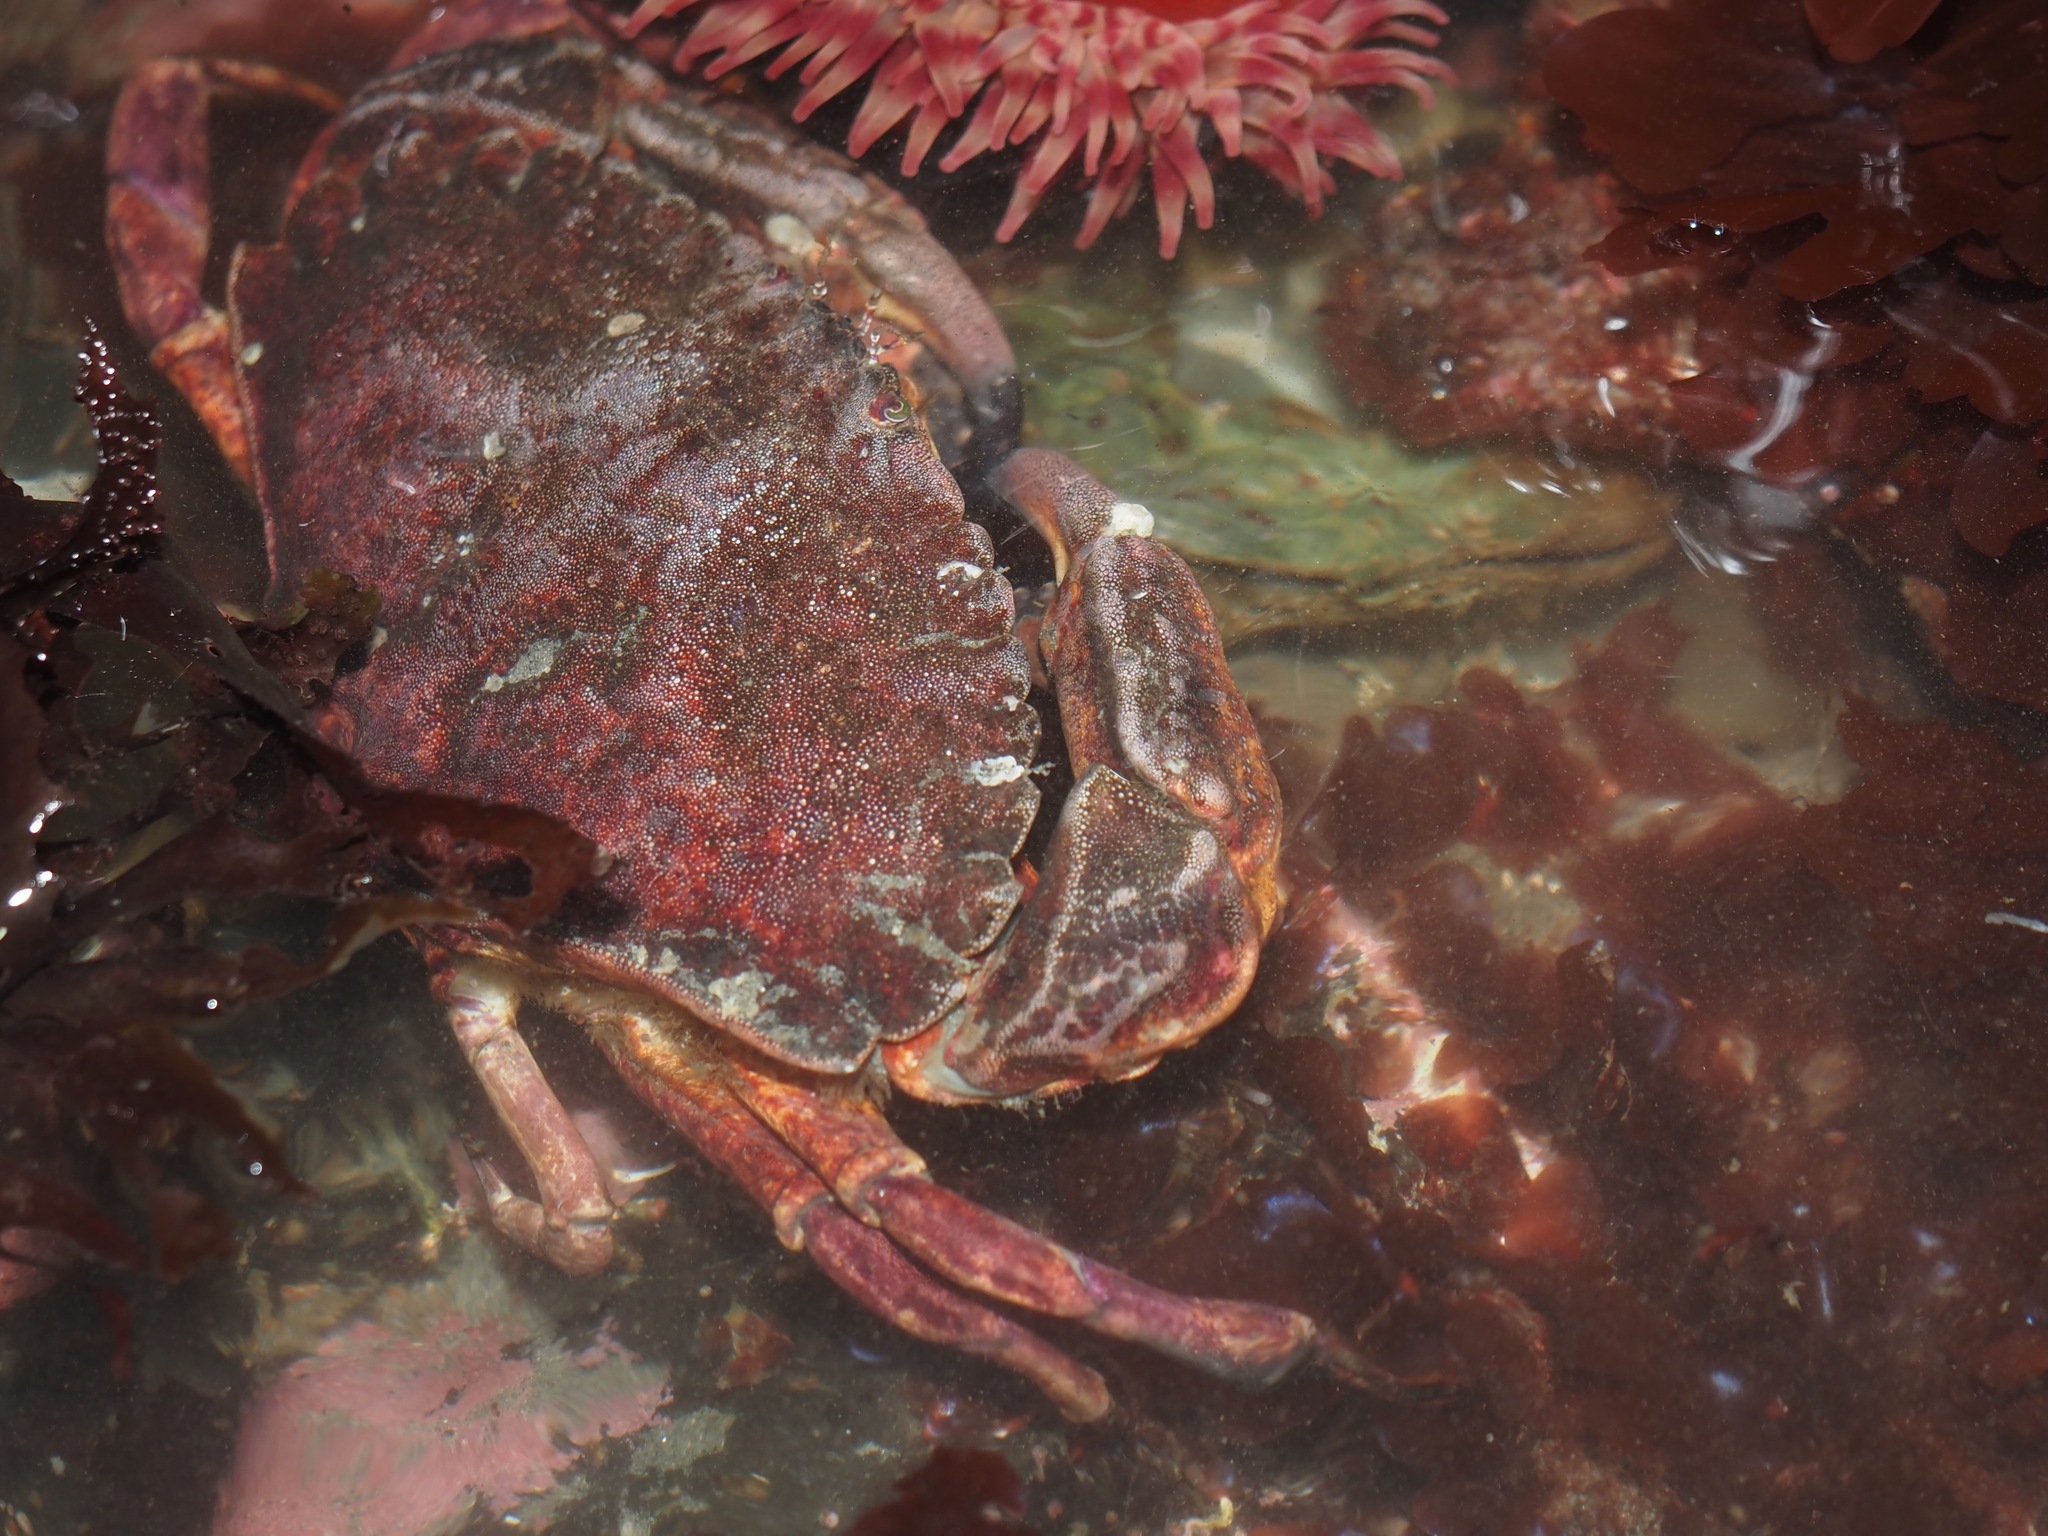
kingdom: Animalia
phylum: Arthropoda
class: Malacostraca
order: Decapoda
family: Cancridae
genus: Cancer
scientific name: Cancer productus
